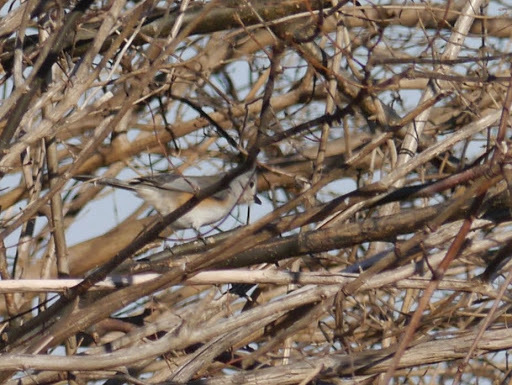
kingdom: Animalia
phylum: Chordata
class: Aves
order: Passeriformes
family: Paridae
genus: Baeolophus
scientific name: Baeolophus bicolor
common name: Tufted titmouse
